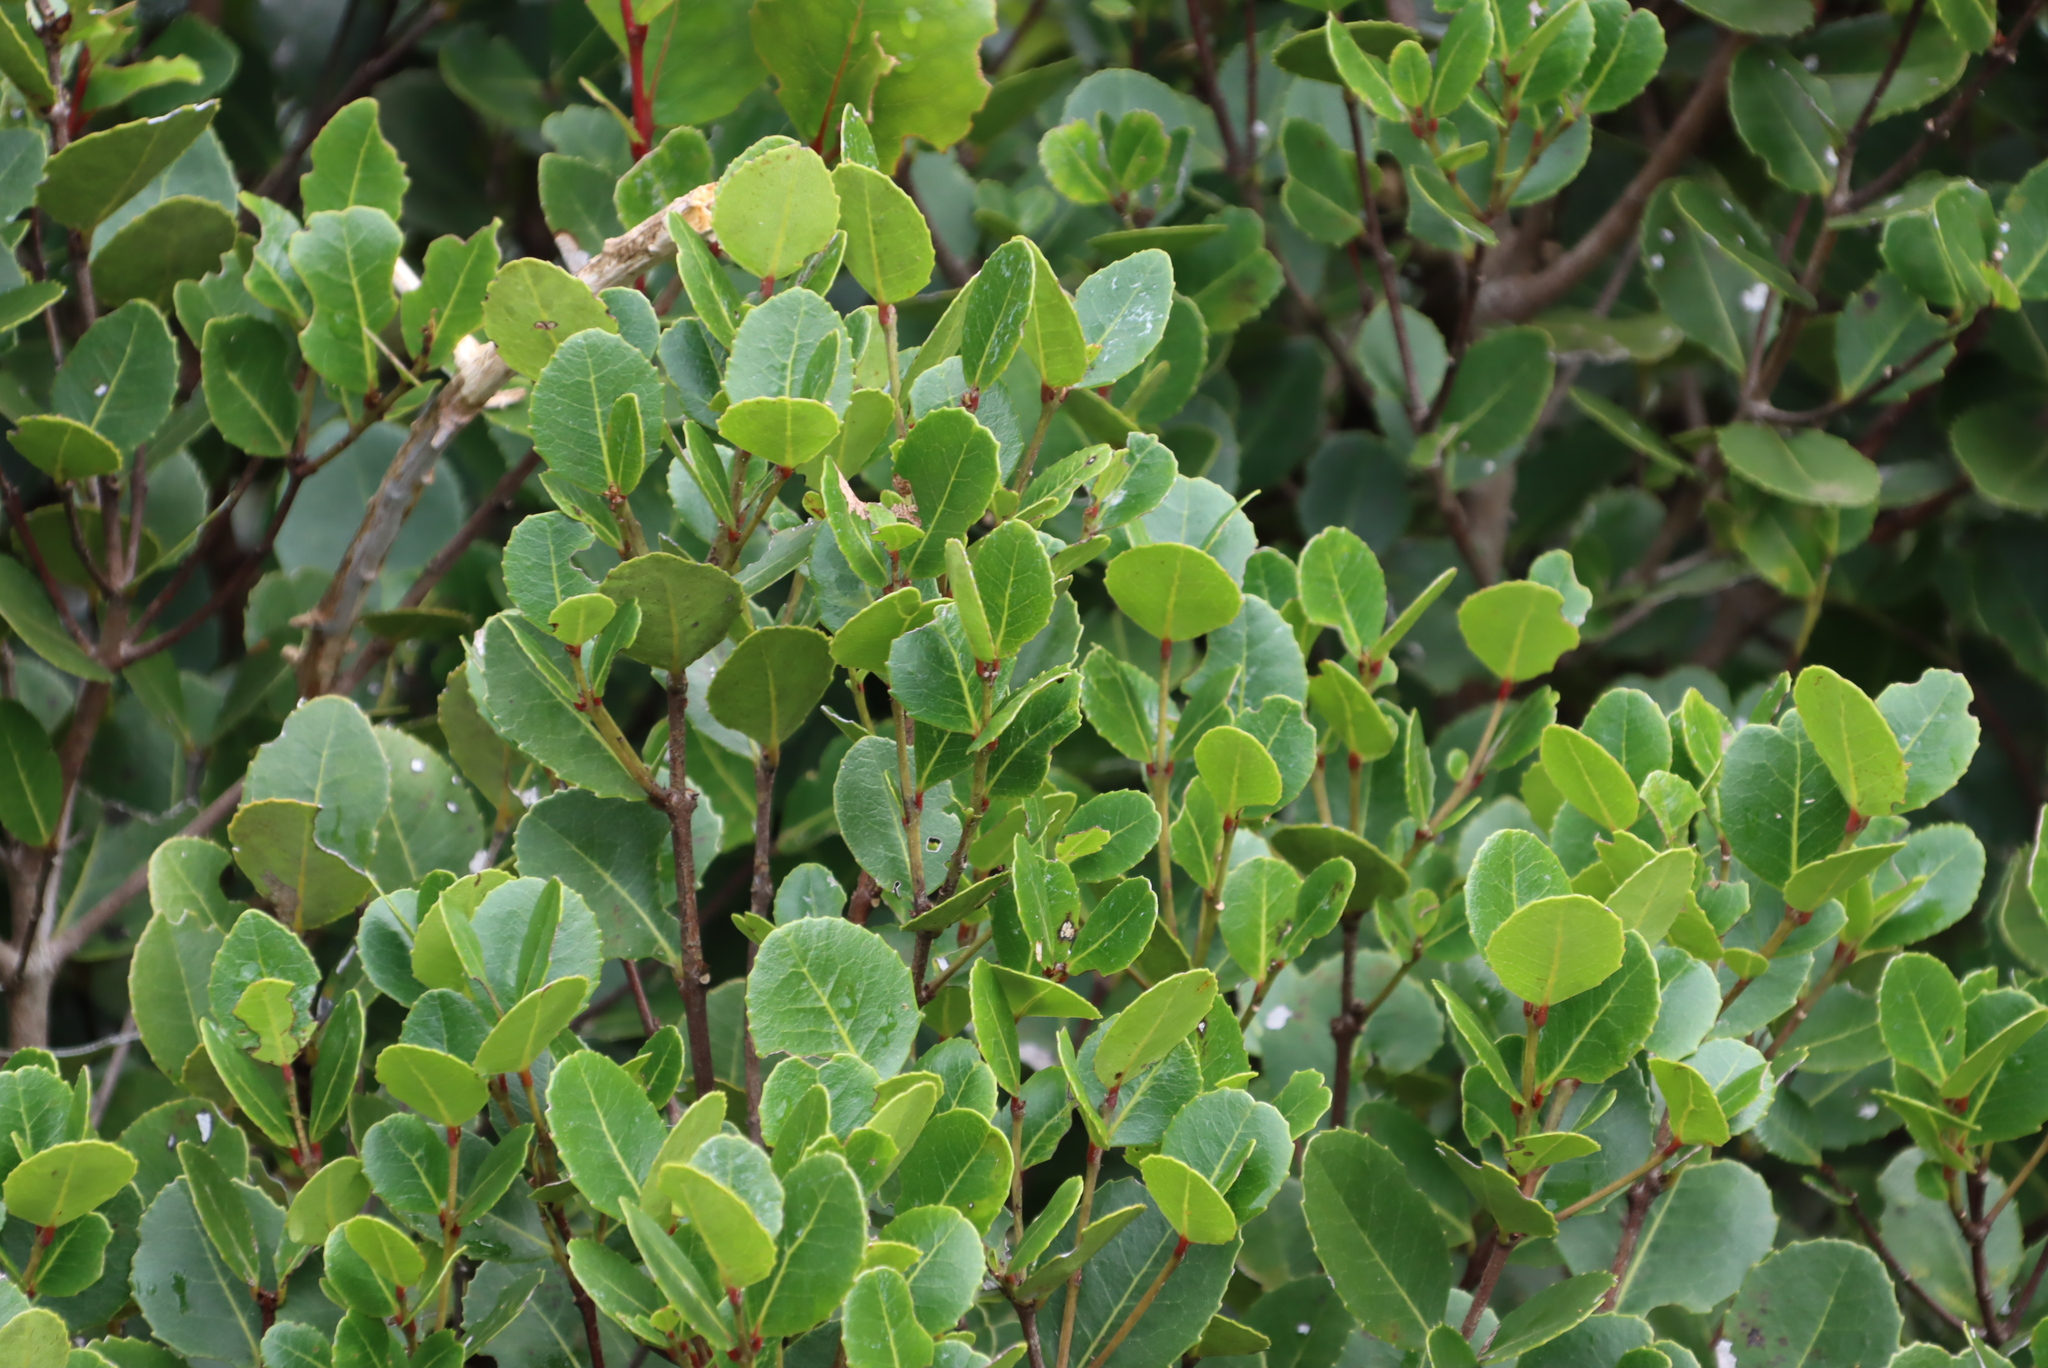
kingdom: Plantae
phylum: Tracheophyta
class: Magnoliopsida
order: Celastrales
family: Celastraceae
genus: Cassine
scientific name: Cassine peragua
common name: Cape saffron
